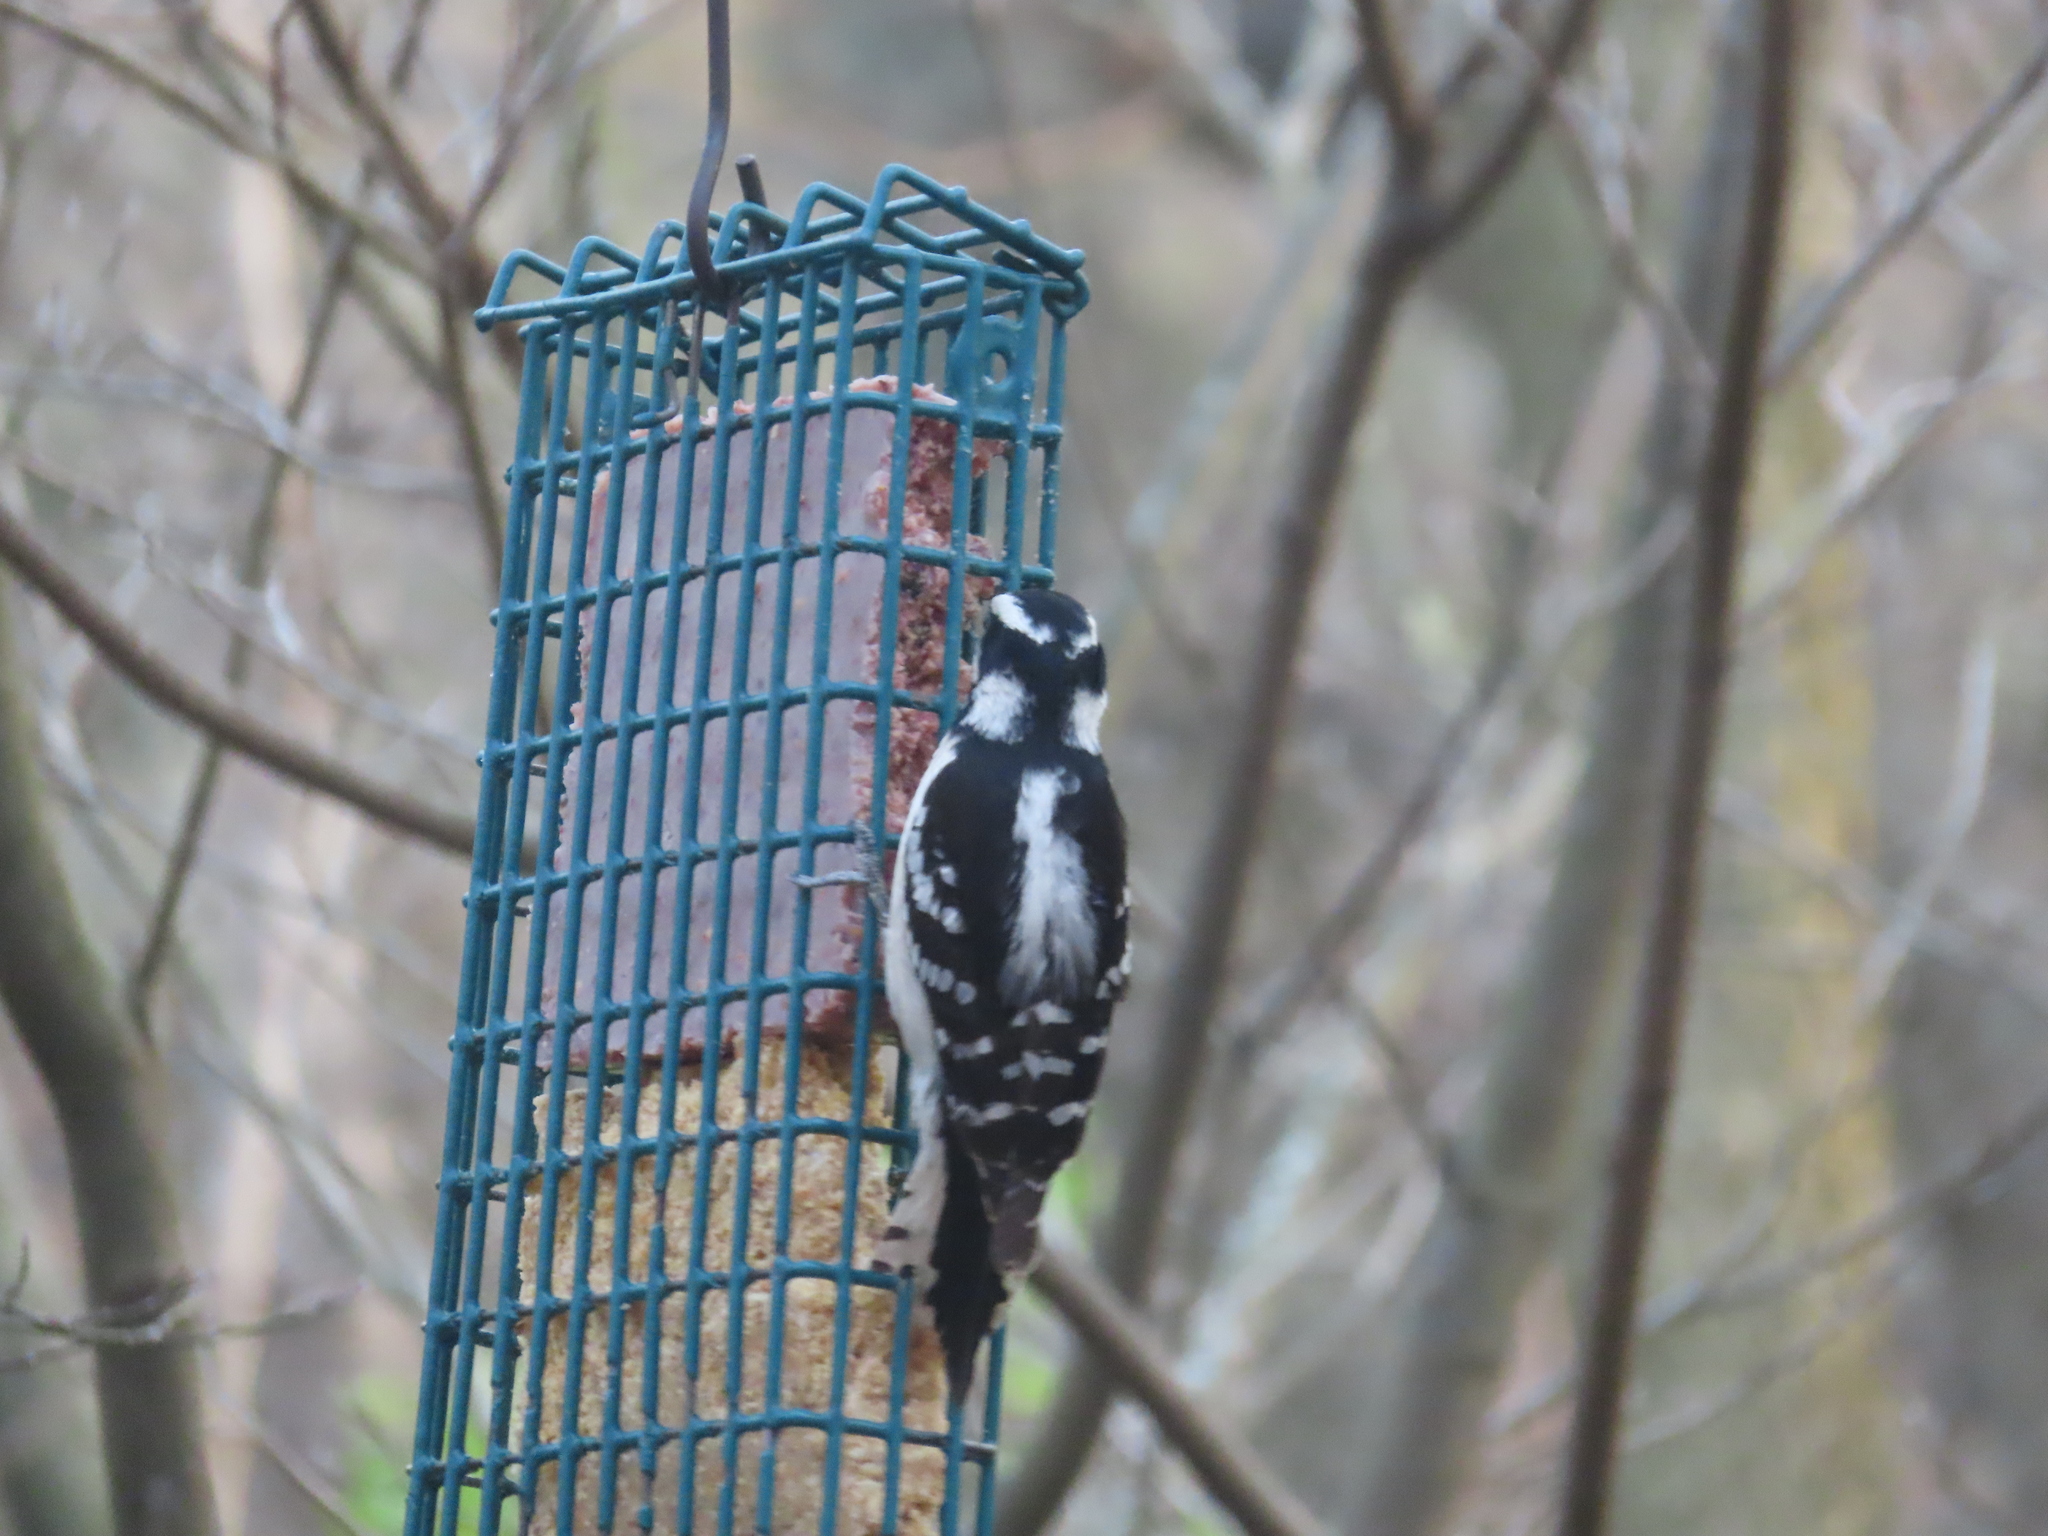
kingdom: Animalia
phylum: Chordata
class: Aves
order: Piciformes
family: Picidae
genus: Dryobates
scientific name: Dryobates pubescens
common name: Downy woodpecker
